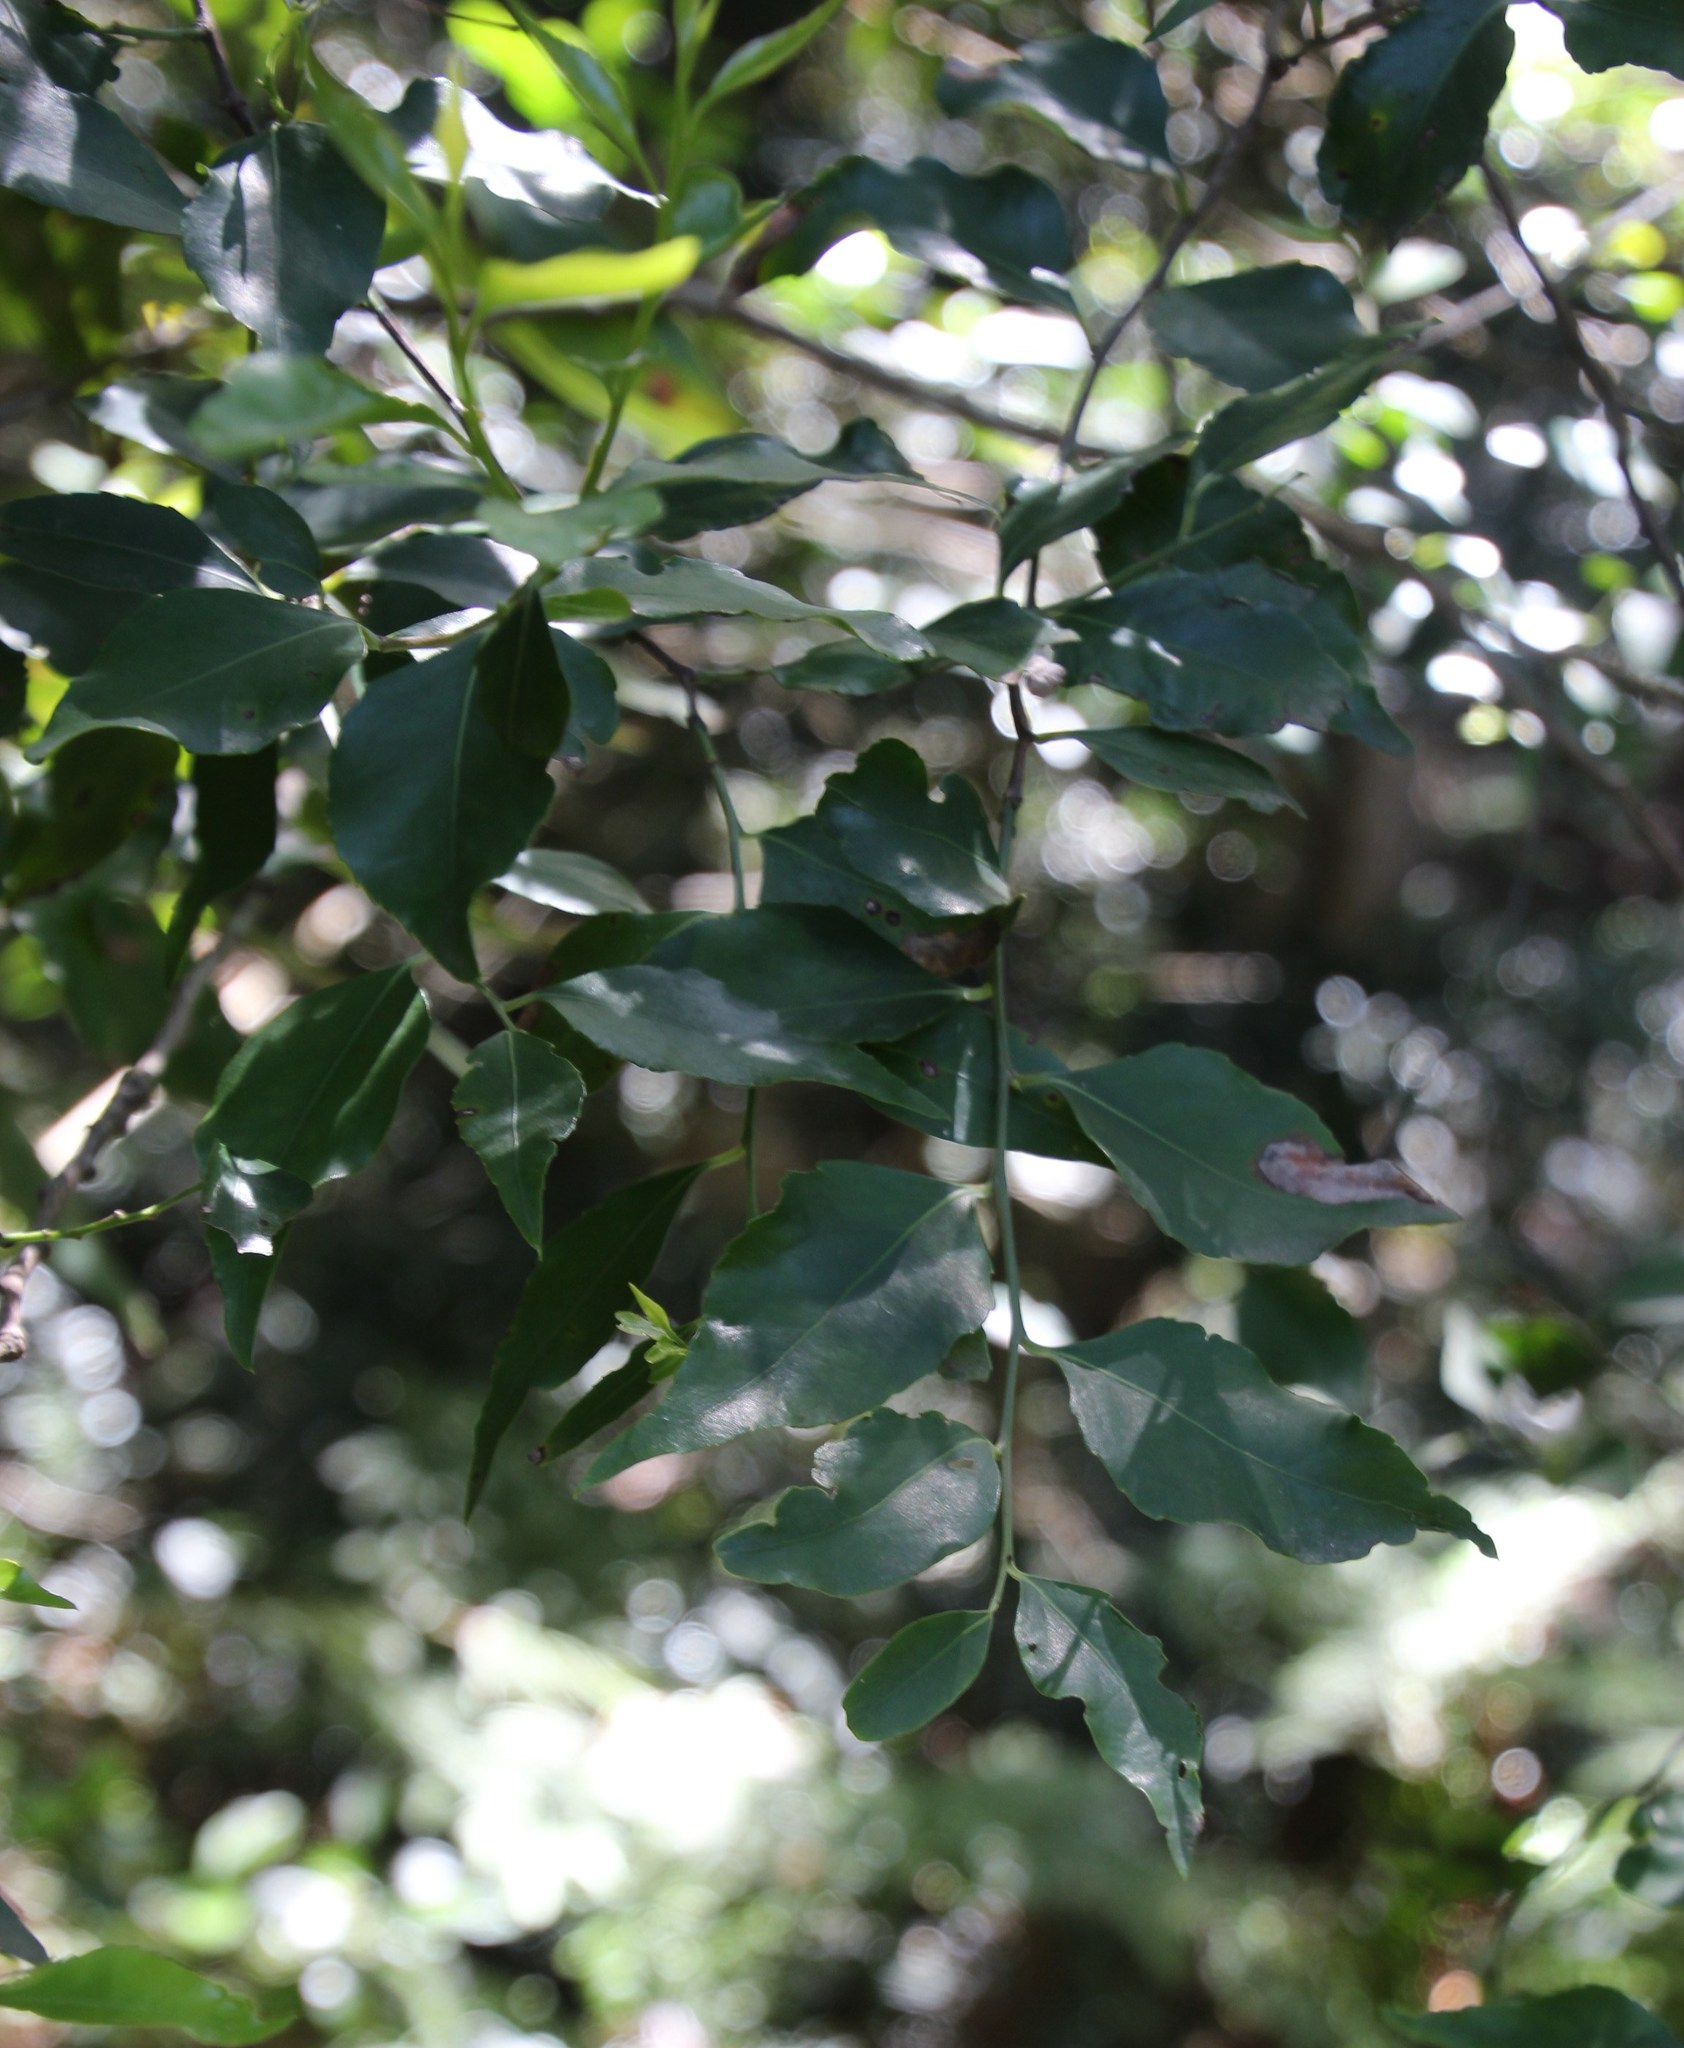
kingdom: Plantae
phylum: Tracheophyta
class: Magnoliopsida
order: Celastrales
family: Celastraceae
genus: Gymnosporia
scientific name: Gymnosporia acuminata
